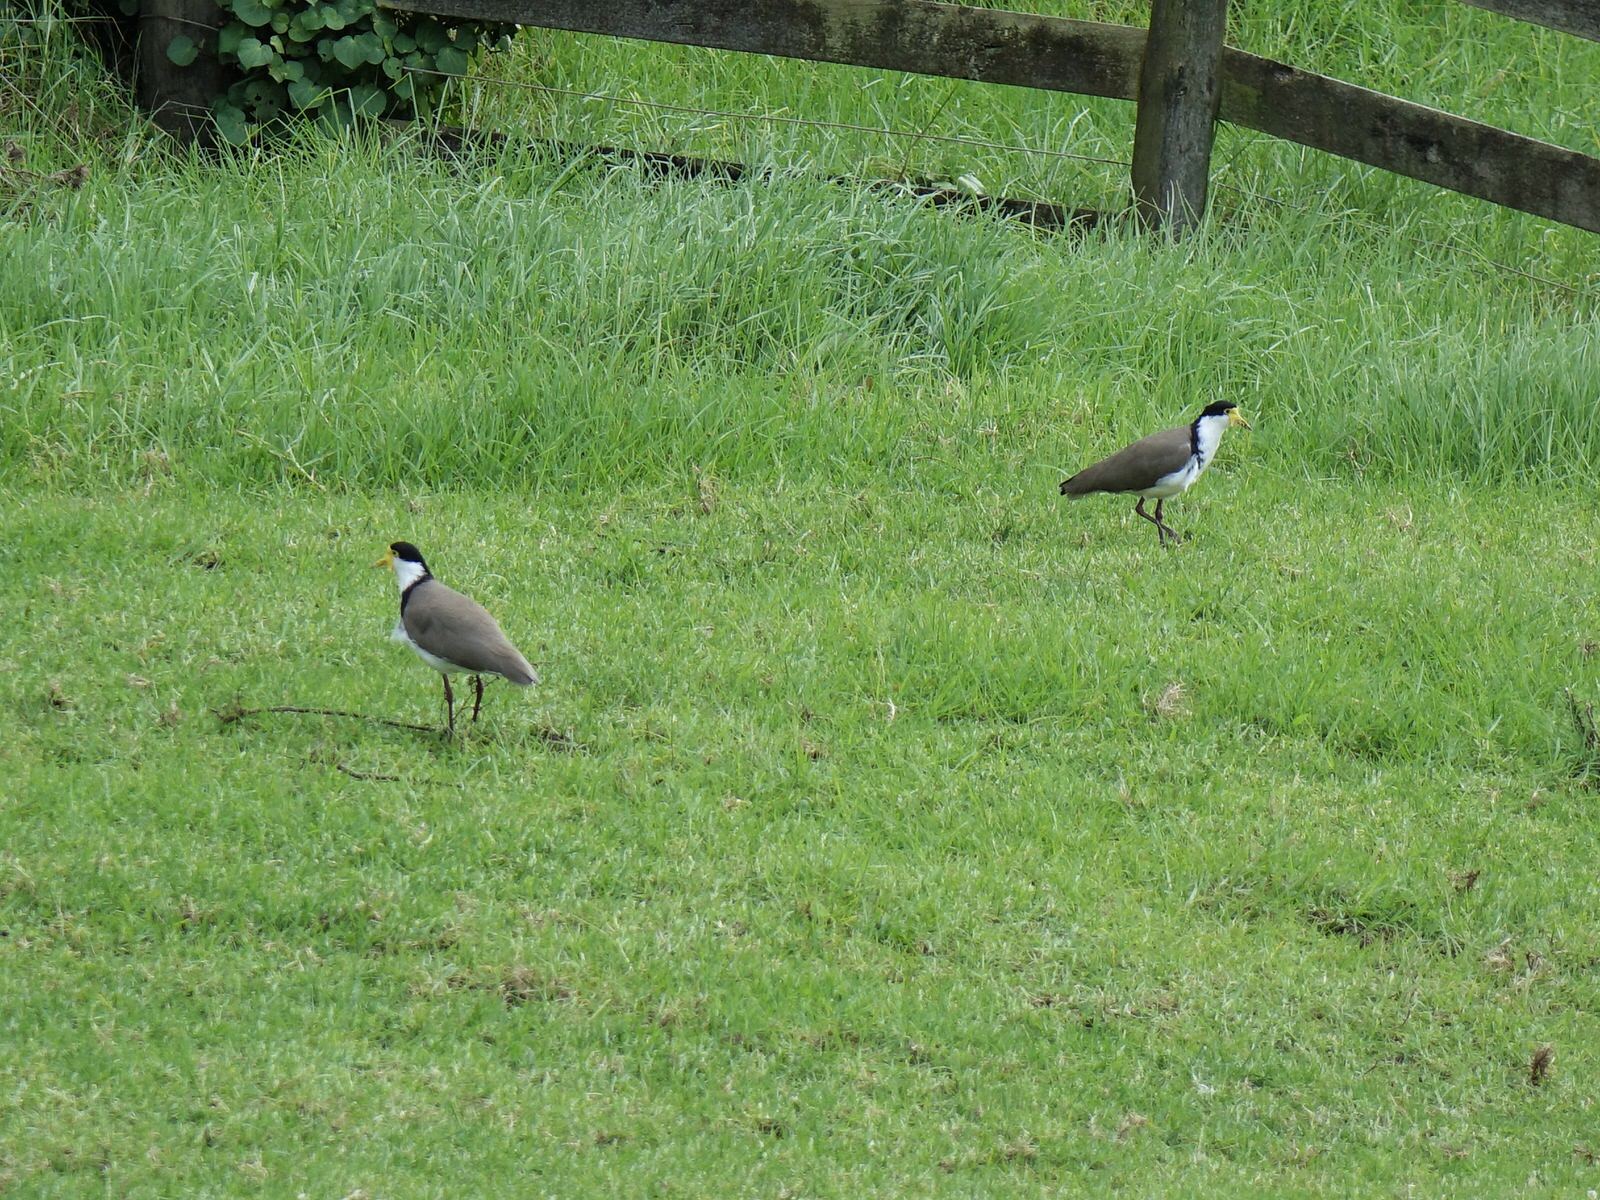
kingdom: Animalia
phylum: Chordata
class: Aves
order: Charadriiformes
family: Charadriidae
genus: Vanellus
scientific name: Vanellus miles
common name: Masked lapwing
